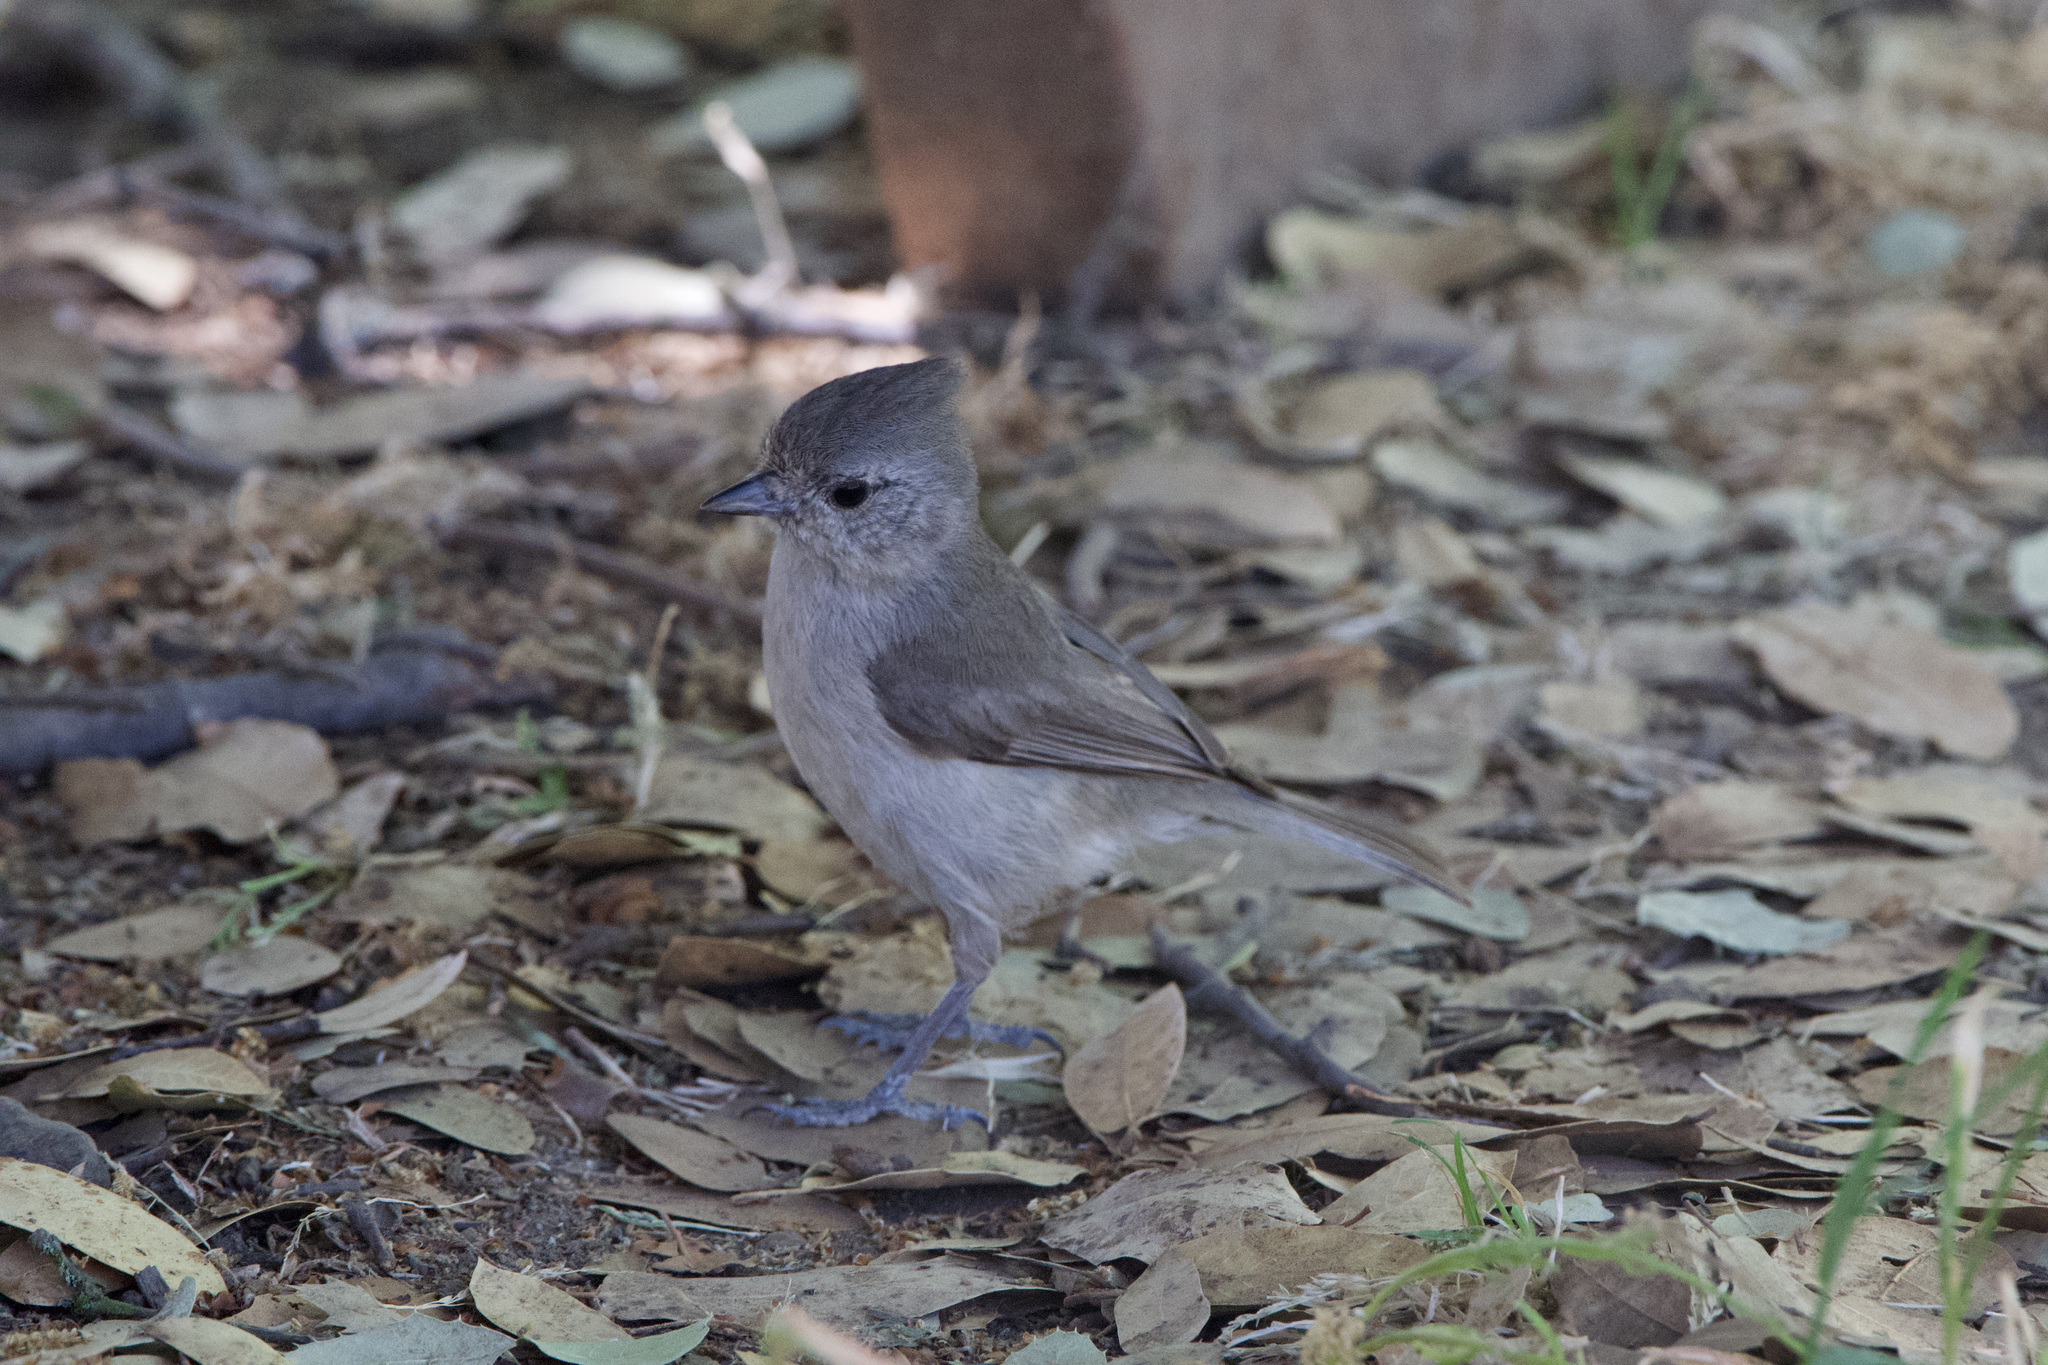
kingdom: Animalia
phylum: Chordata
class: Aves
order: Passeriformes
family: Paridae
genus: Baeolophus
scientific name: Baeolophus inornatus
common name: Oak titmouse
